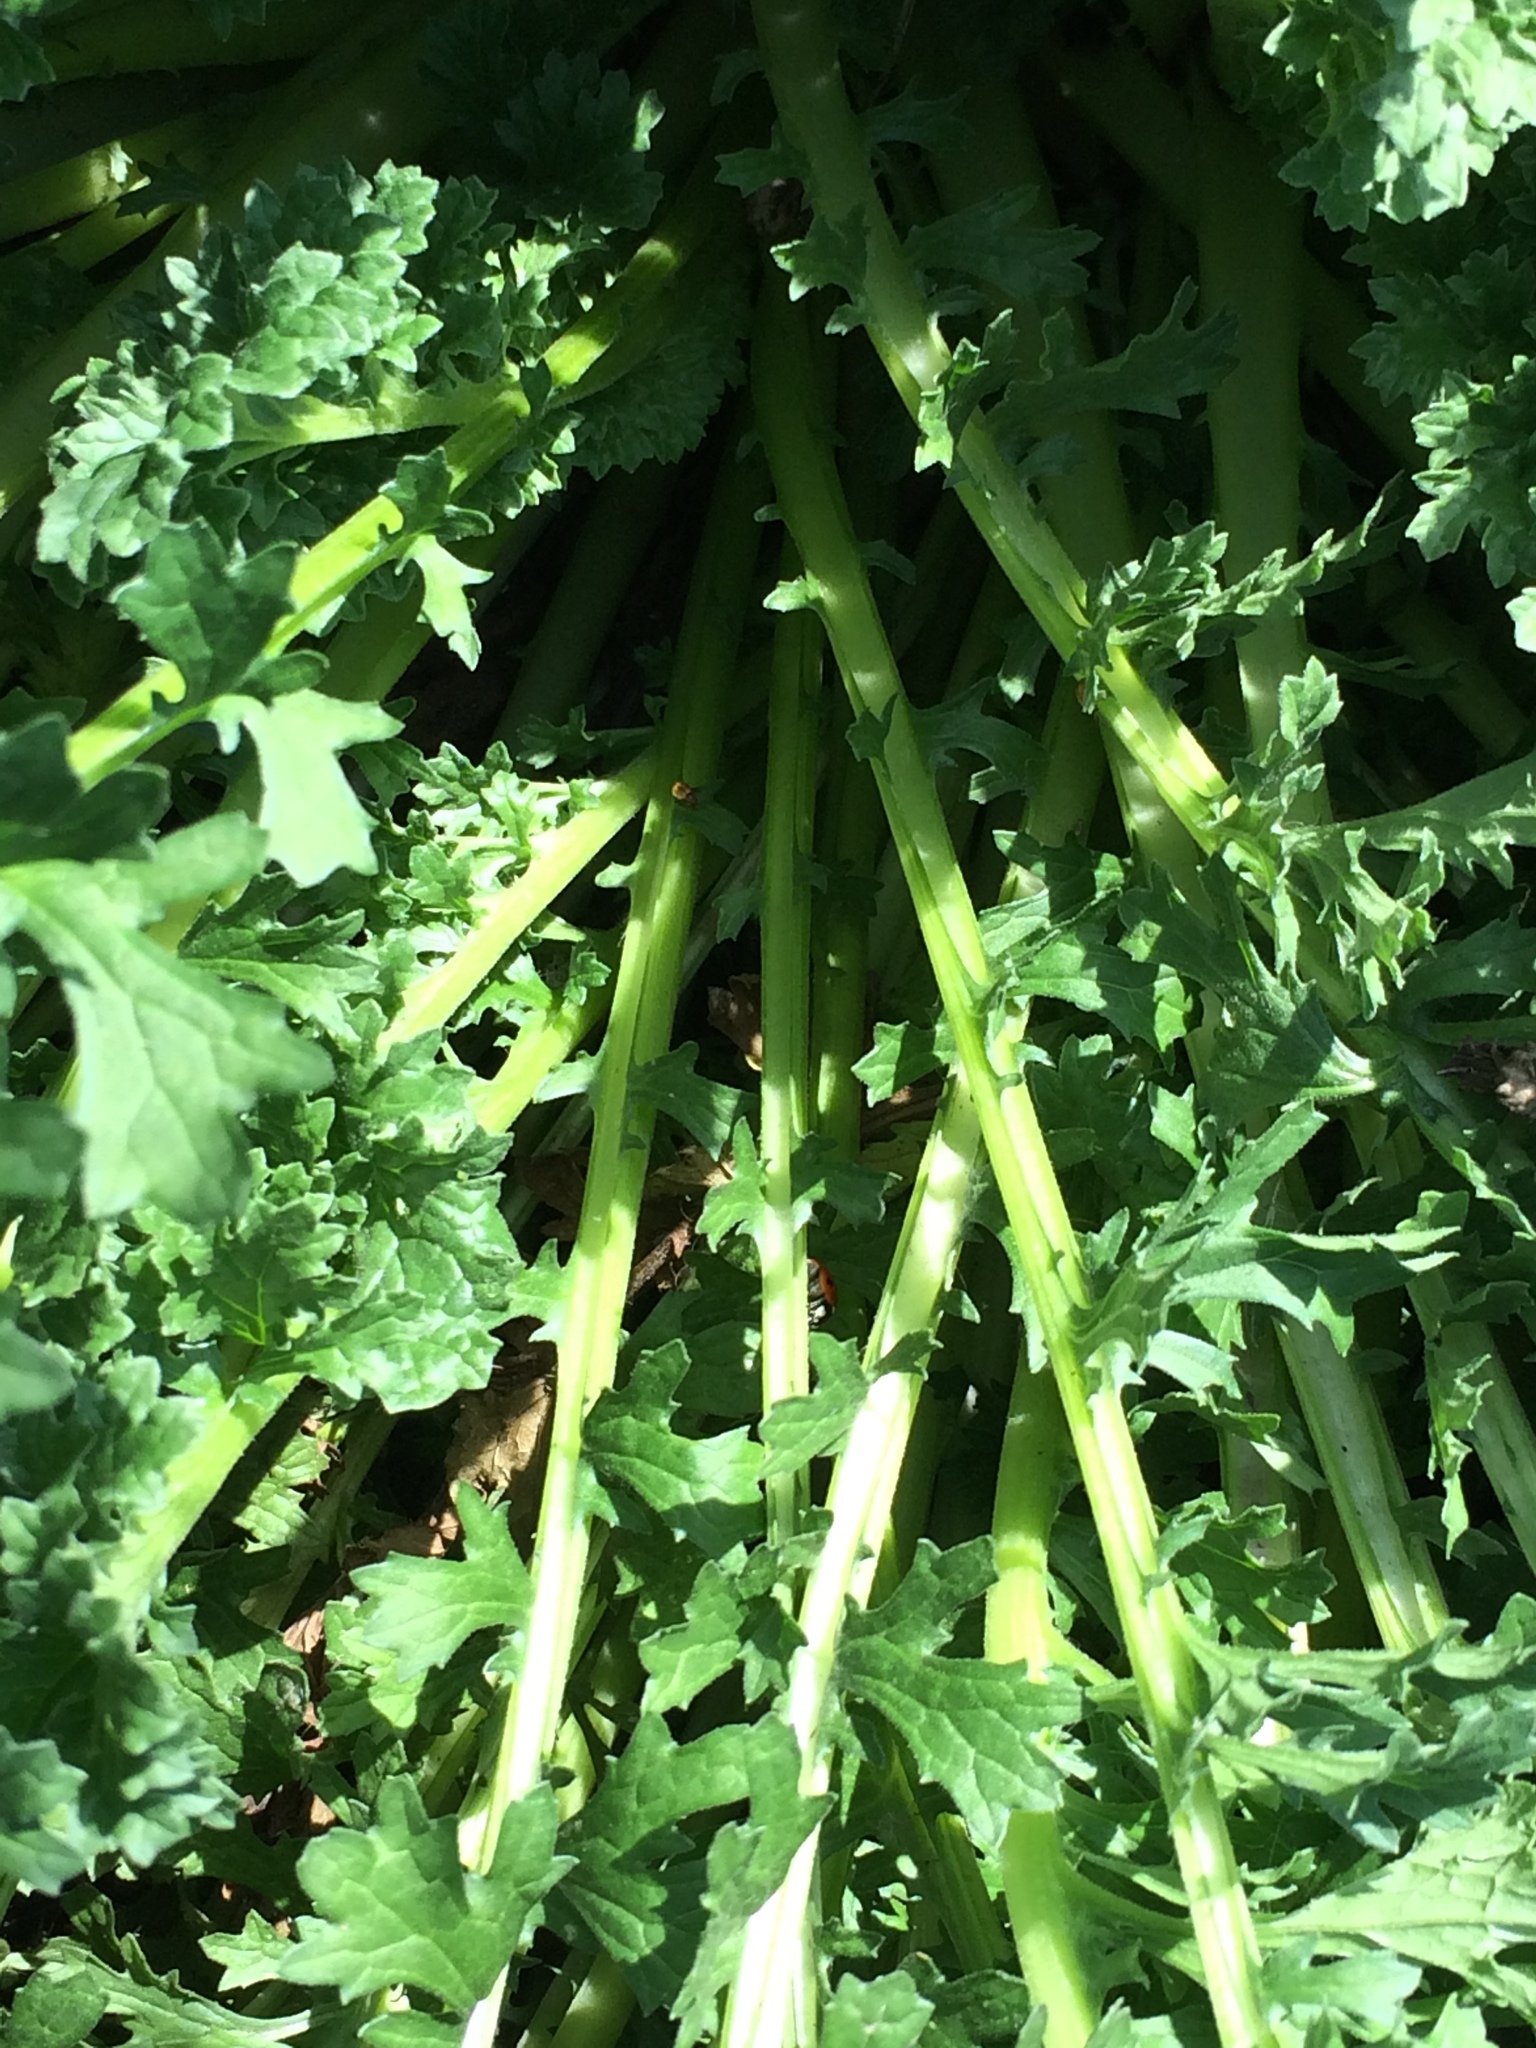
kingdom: Plantae
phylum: Tracheophyta
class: Magnoliopsida
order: Asterales
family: Asteraceae
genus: Jacobaea
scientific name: Jacobaea vulgaris
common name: Stinking willie
